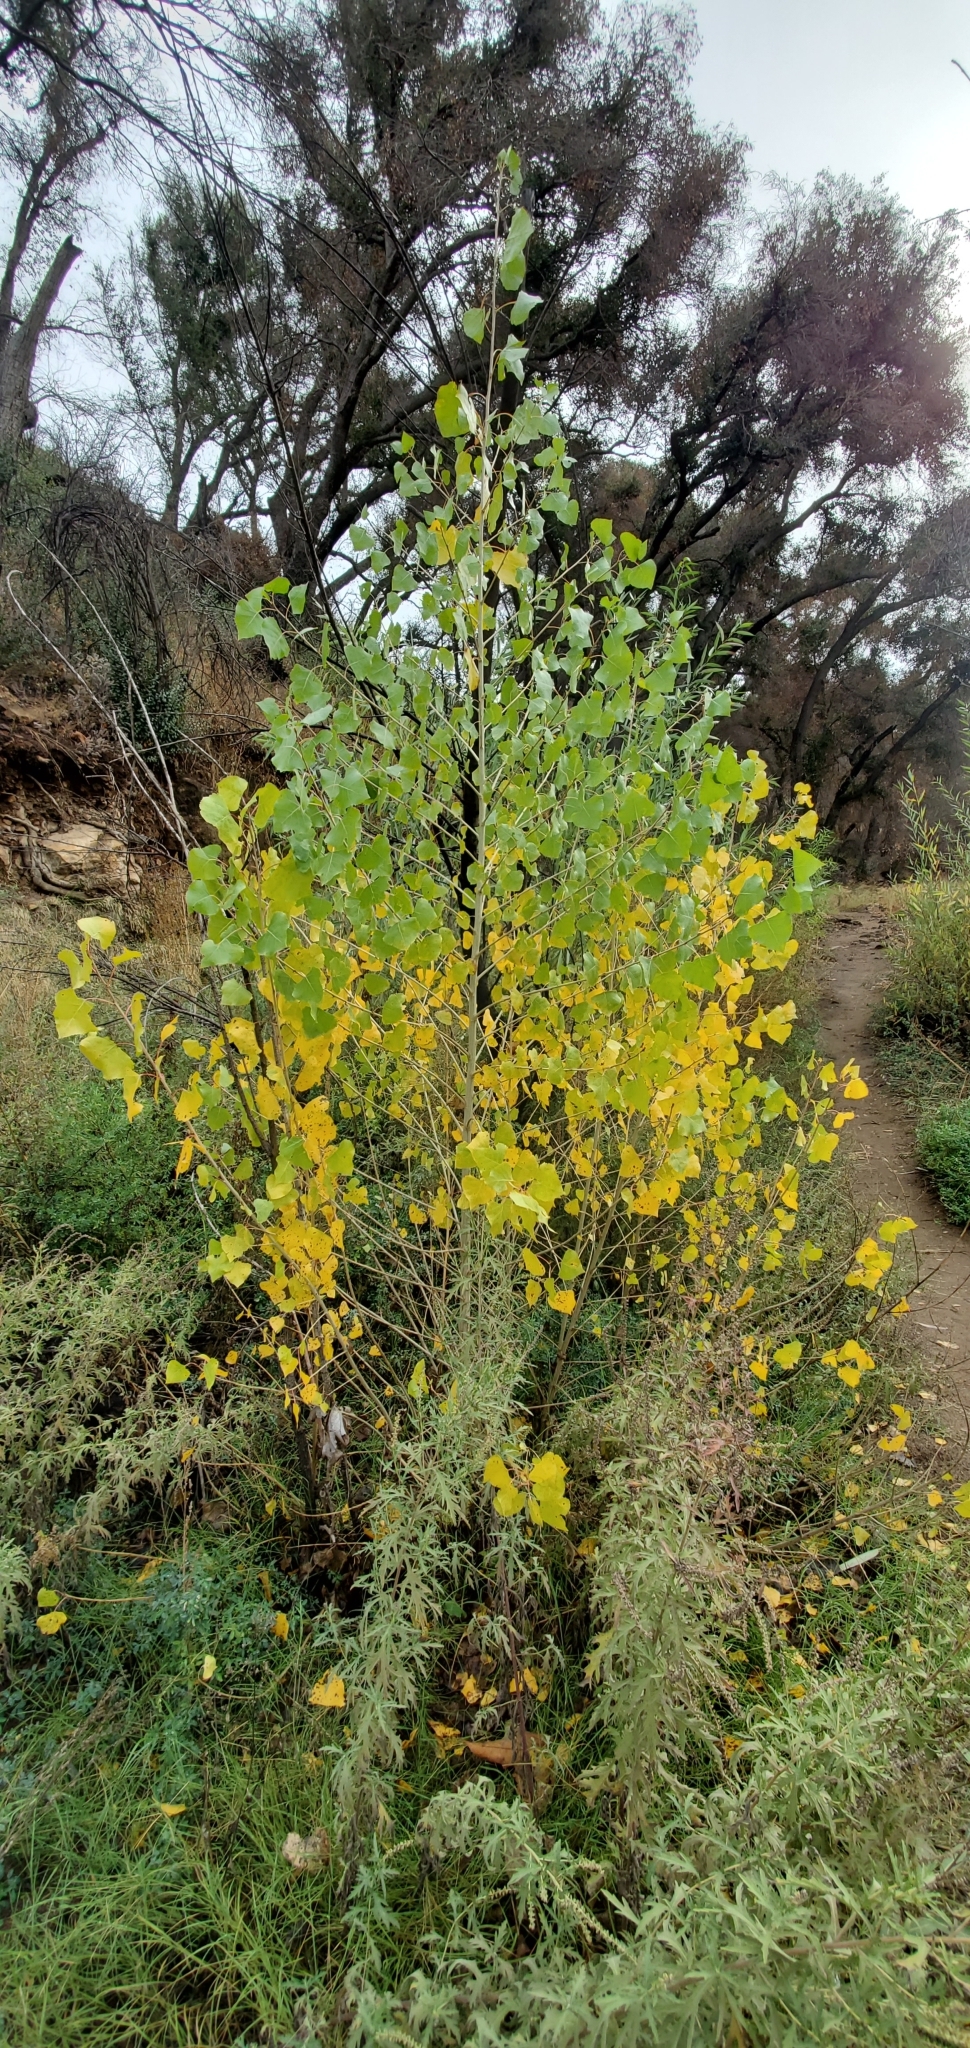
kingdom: Plantae
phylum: Tracheophyta
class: Magnoliopsida
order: Malpighiales
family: Salicaceae
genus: Populus
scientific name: Populus fremontii
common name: Fremont's cottonwood
